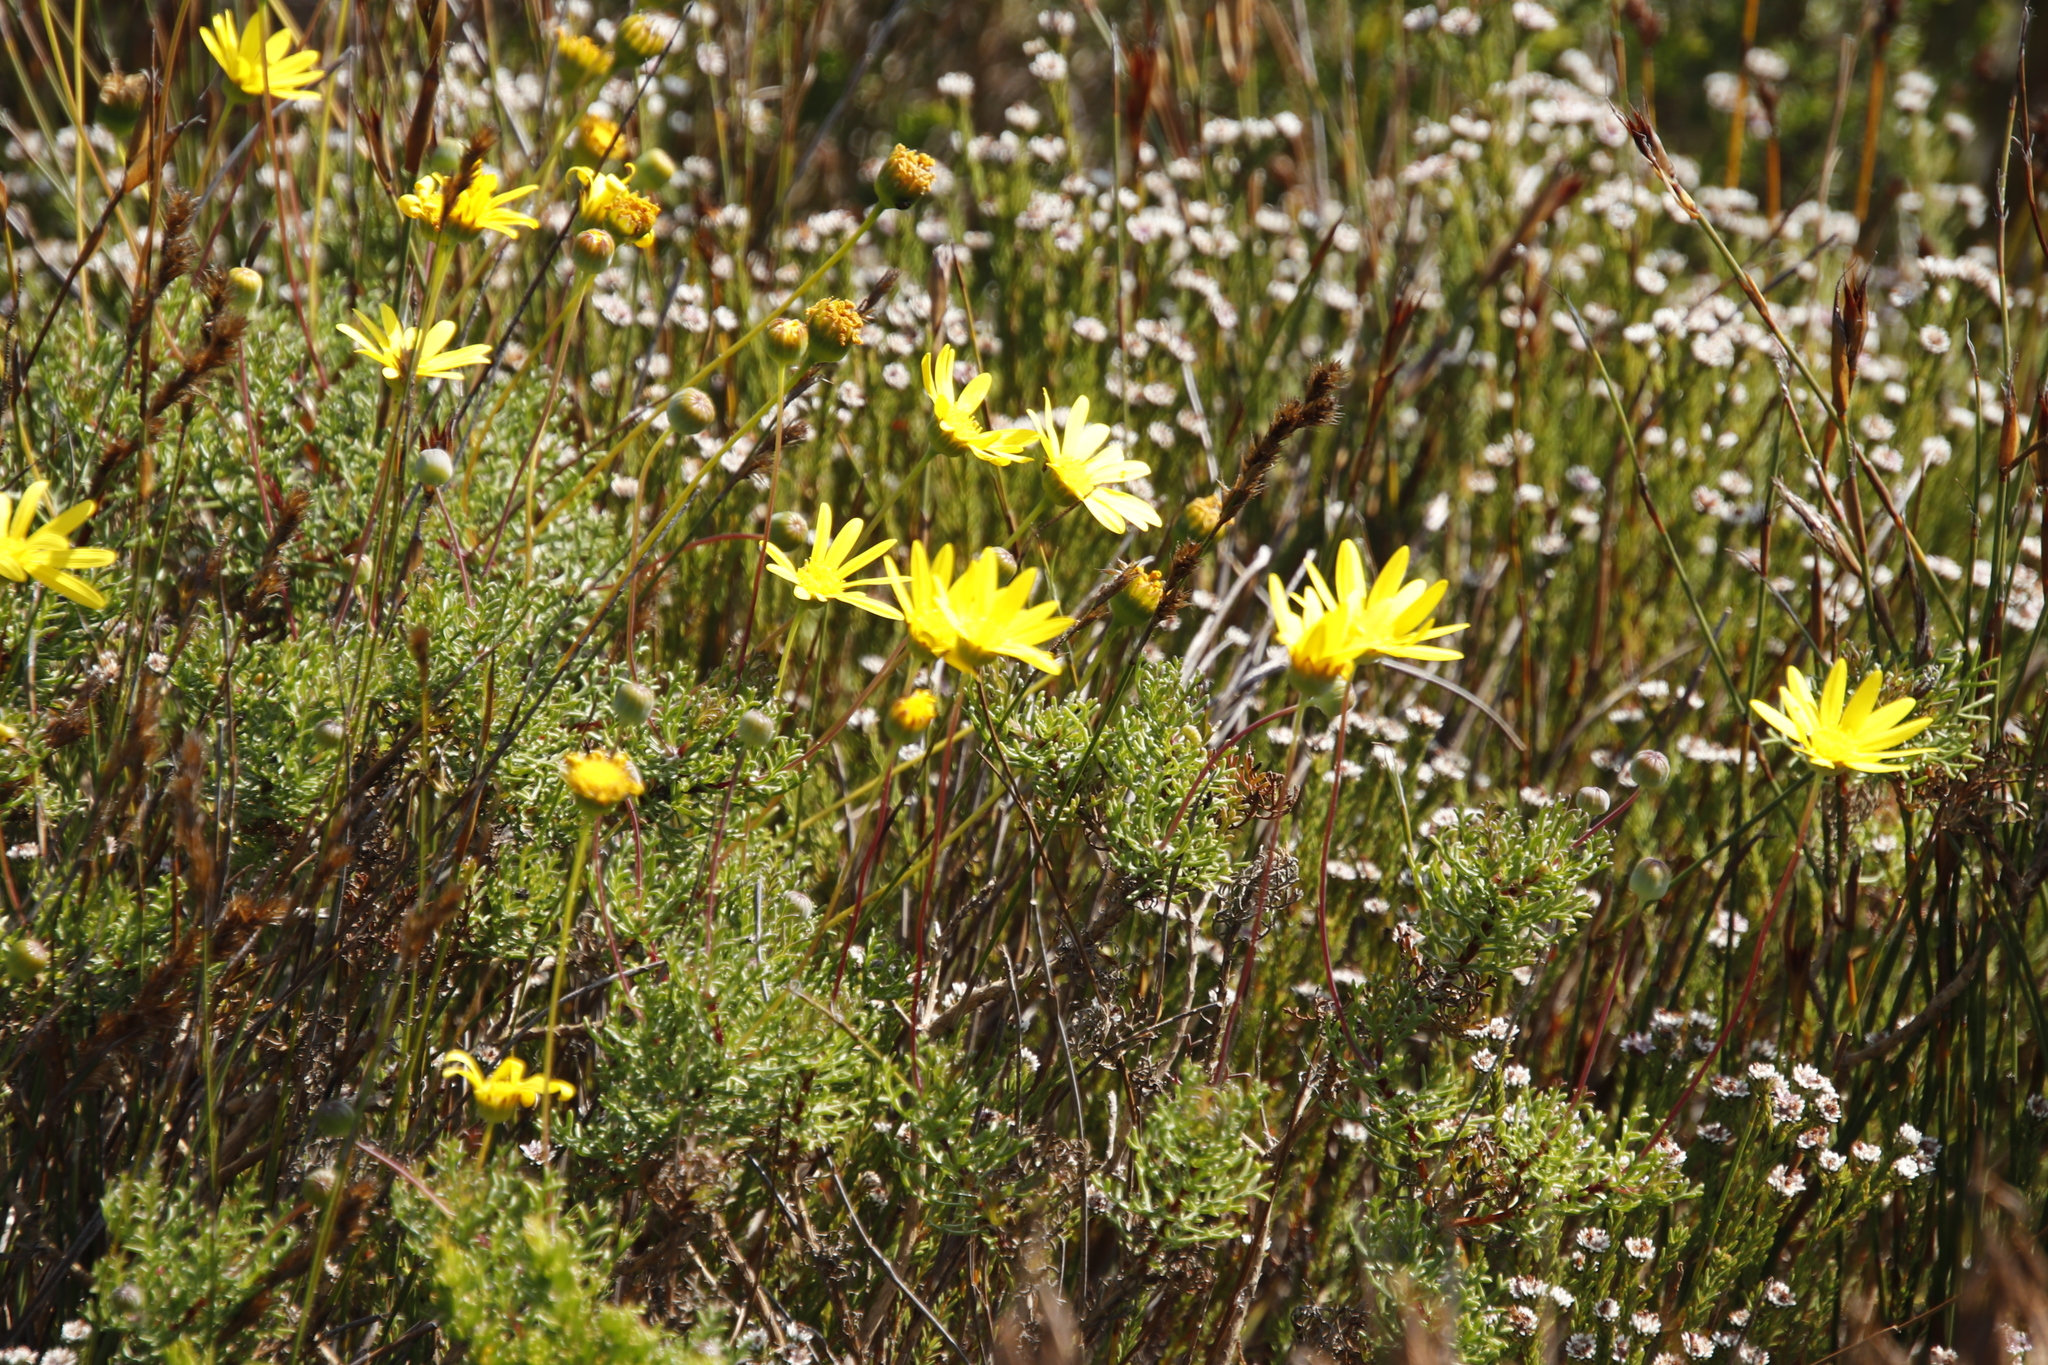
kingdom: Plantae
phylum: Tracheophyta
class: Magnoliopsida
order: Asterales
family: Asteraceae
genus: Euryops
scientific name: Euryops abrotanifolius
